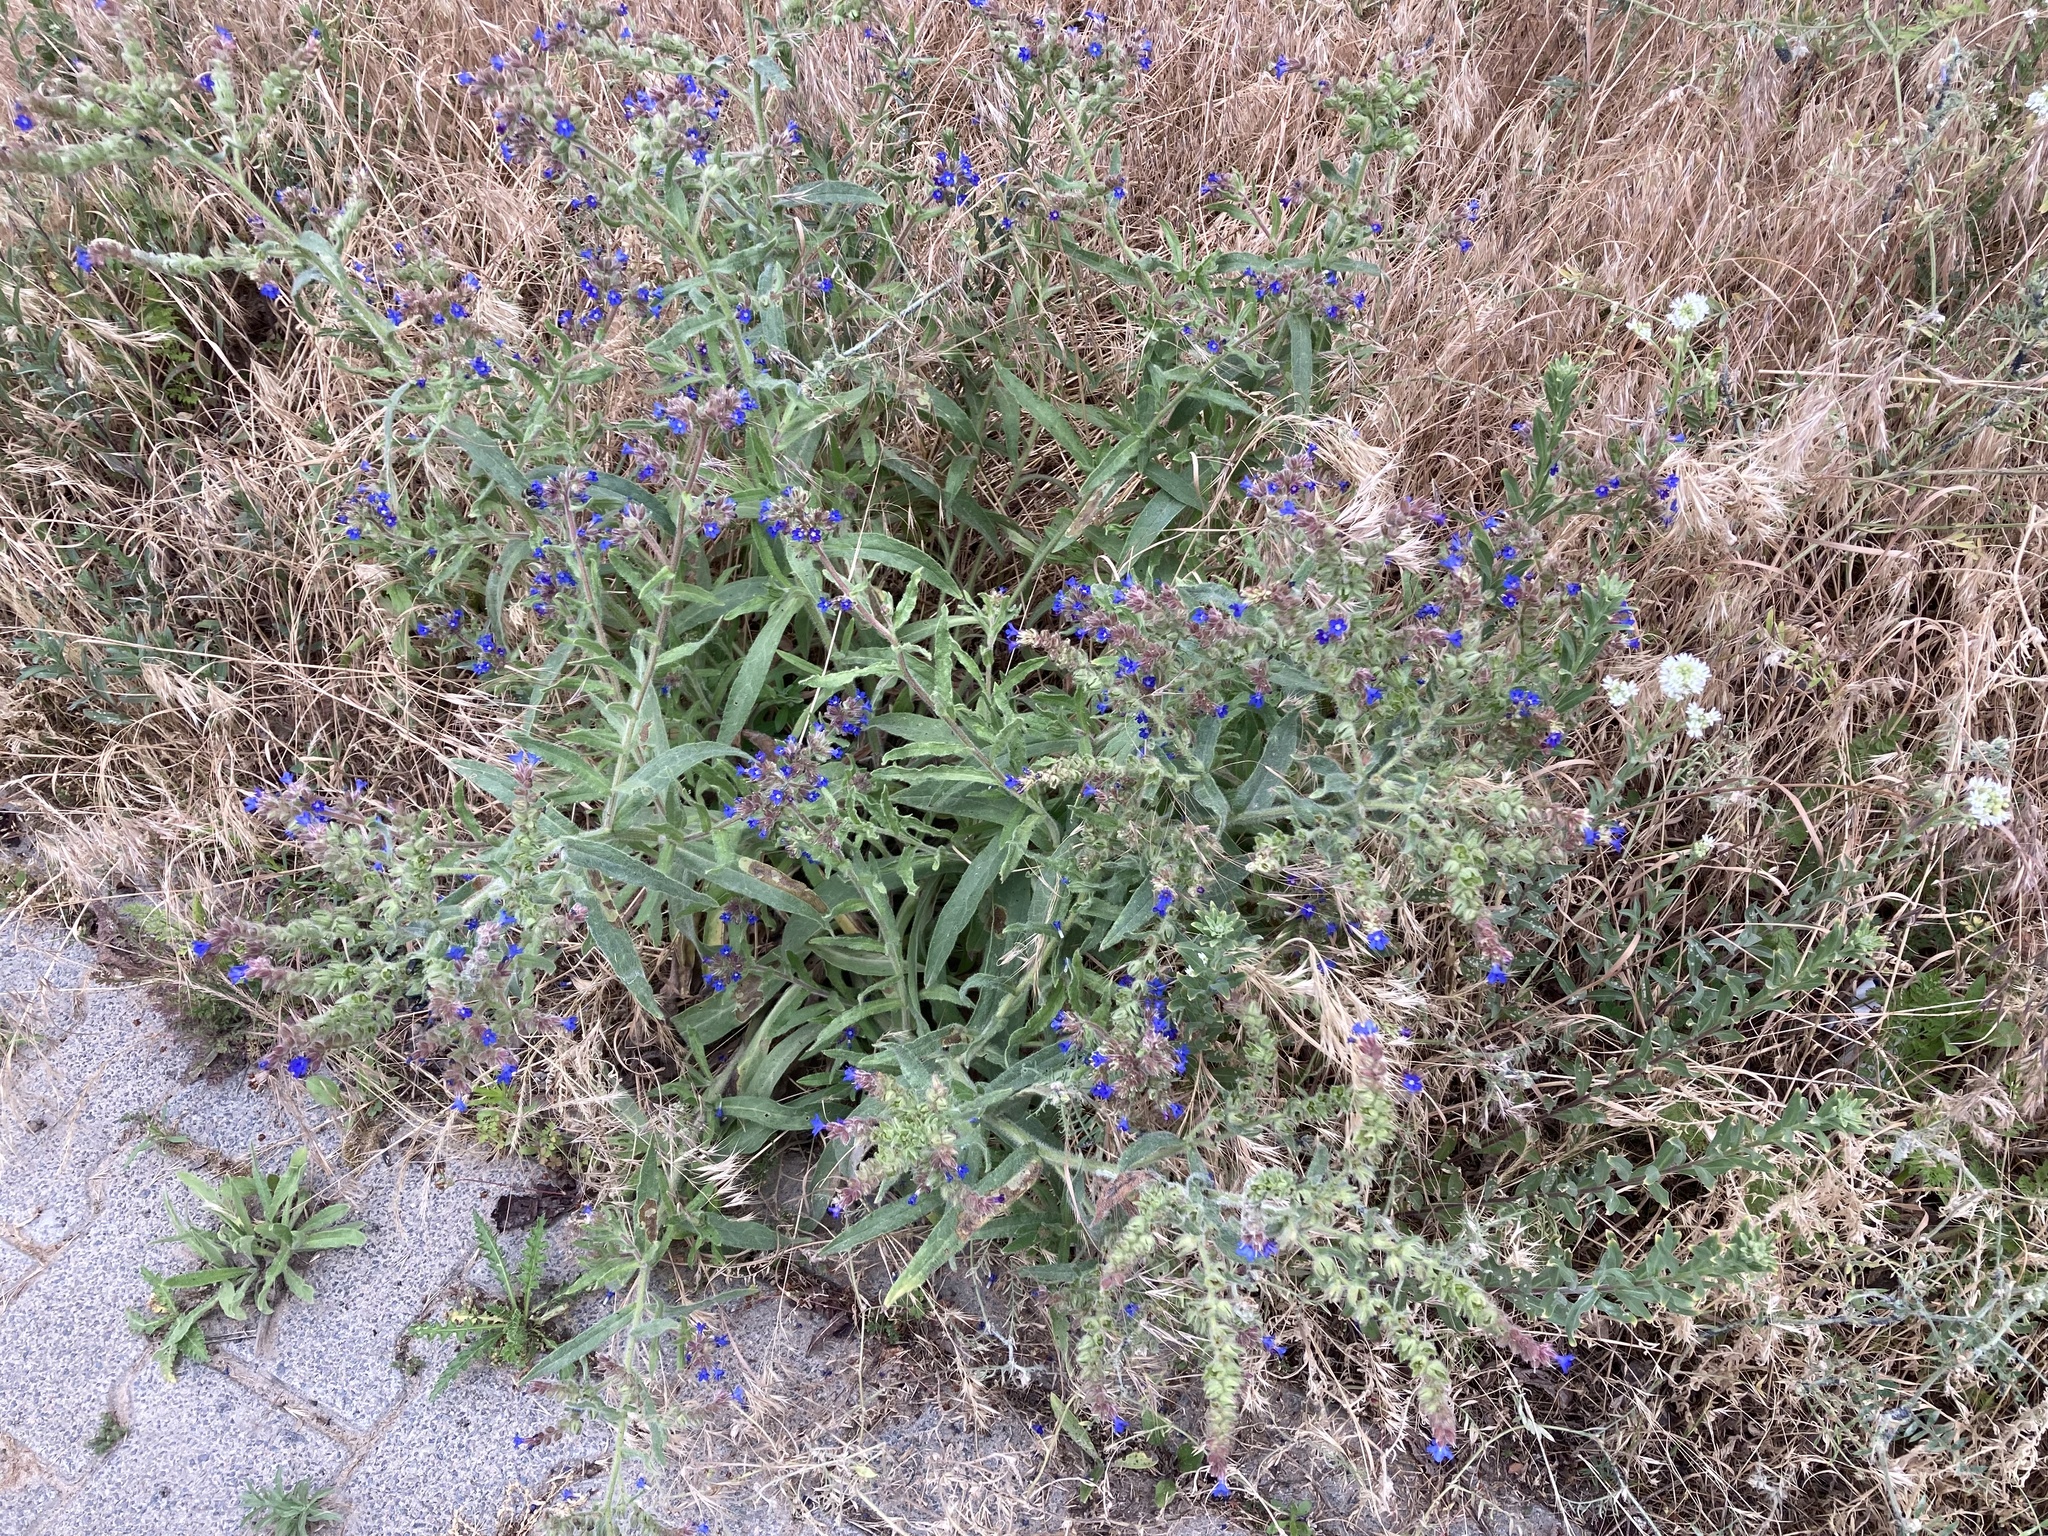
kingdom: Plantae
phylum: Tracheophyta
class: Magnoliopsida
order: Boraginales
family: Boraginaceae
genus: Anchusa
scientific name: Anchusa officinalis
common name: Alkanet
